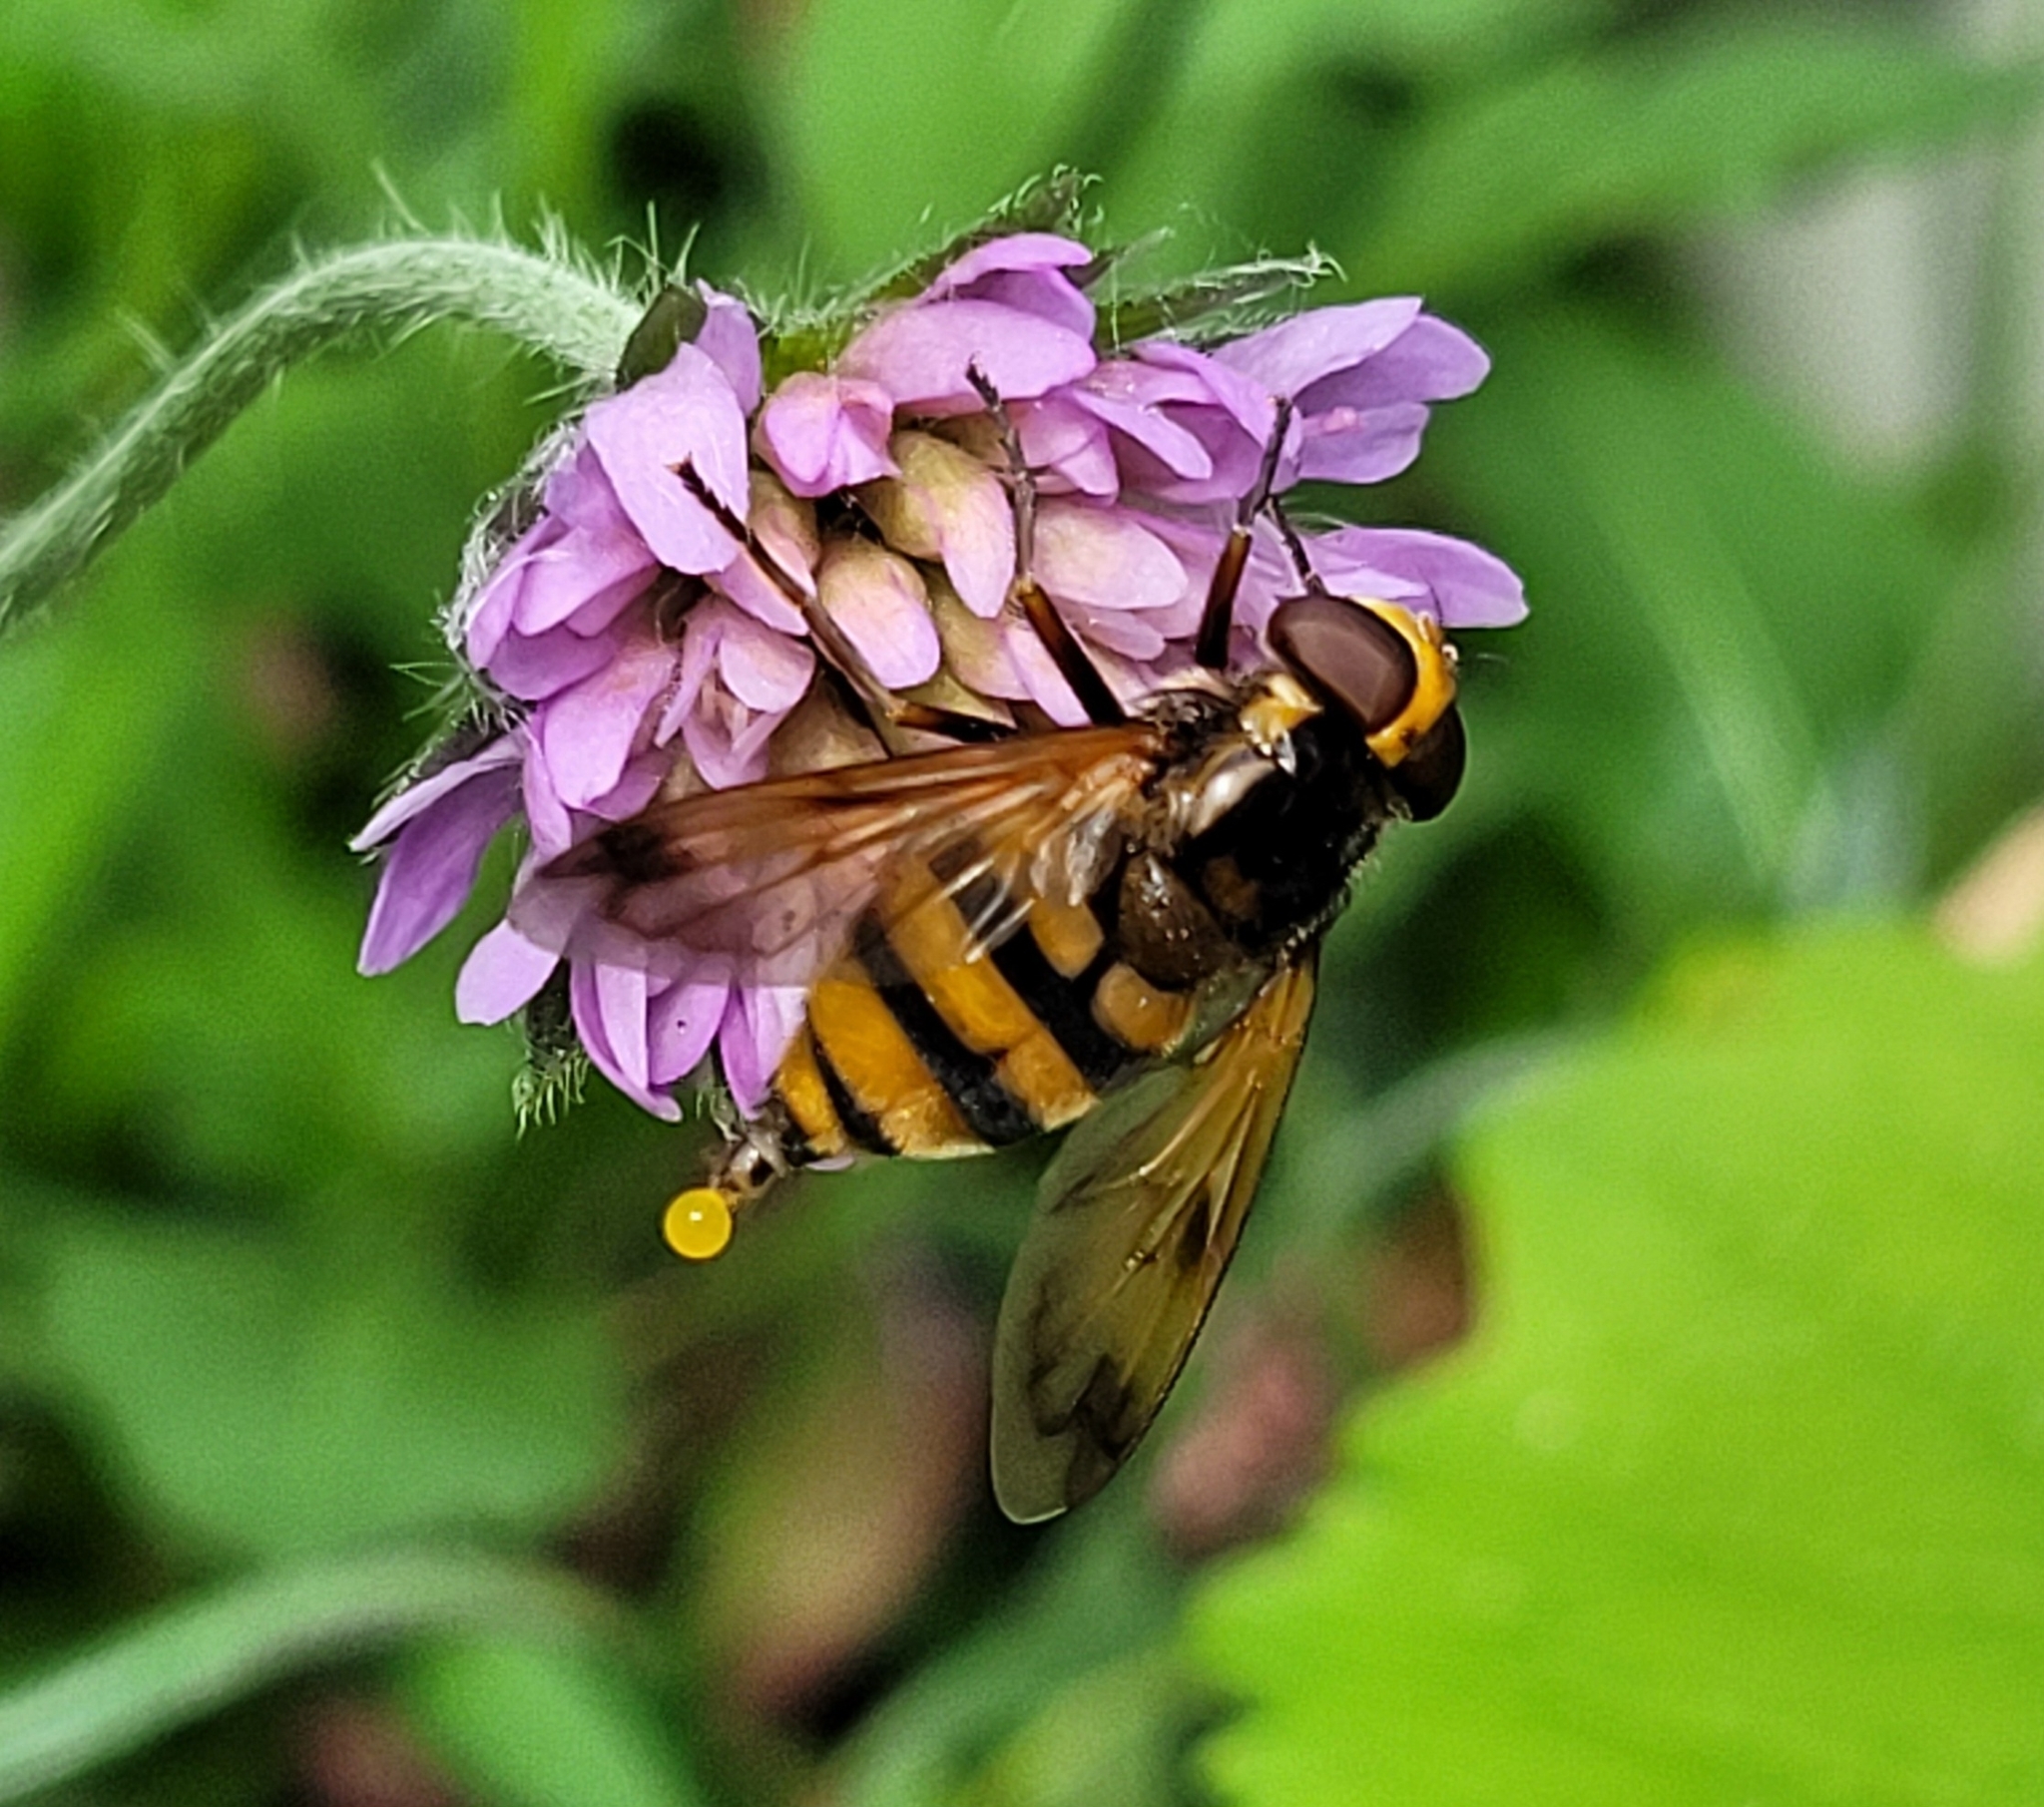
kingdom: Animalia
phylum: Arthropoda
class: Insecta
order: Diptera
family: Syrphidae
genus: Volucella
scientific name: Volucella inanis
